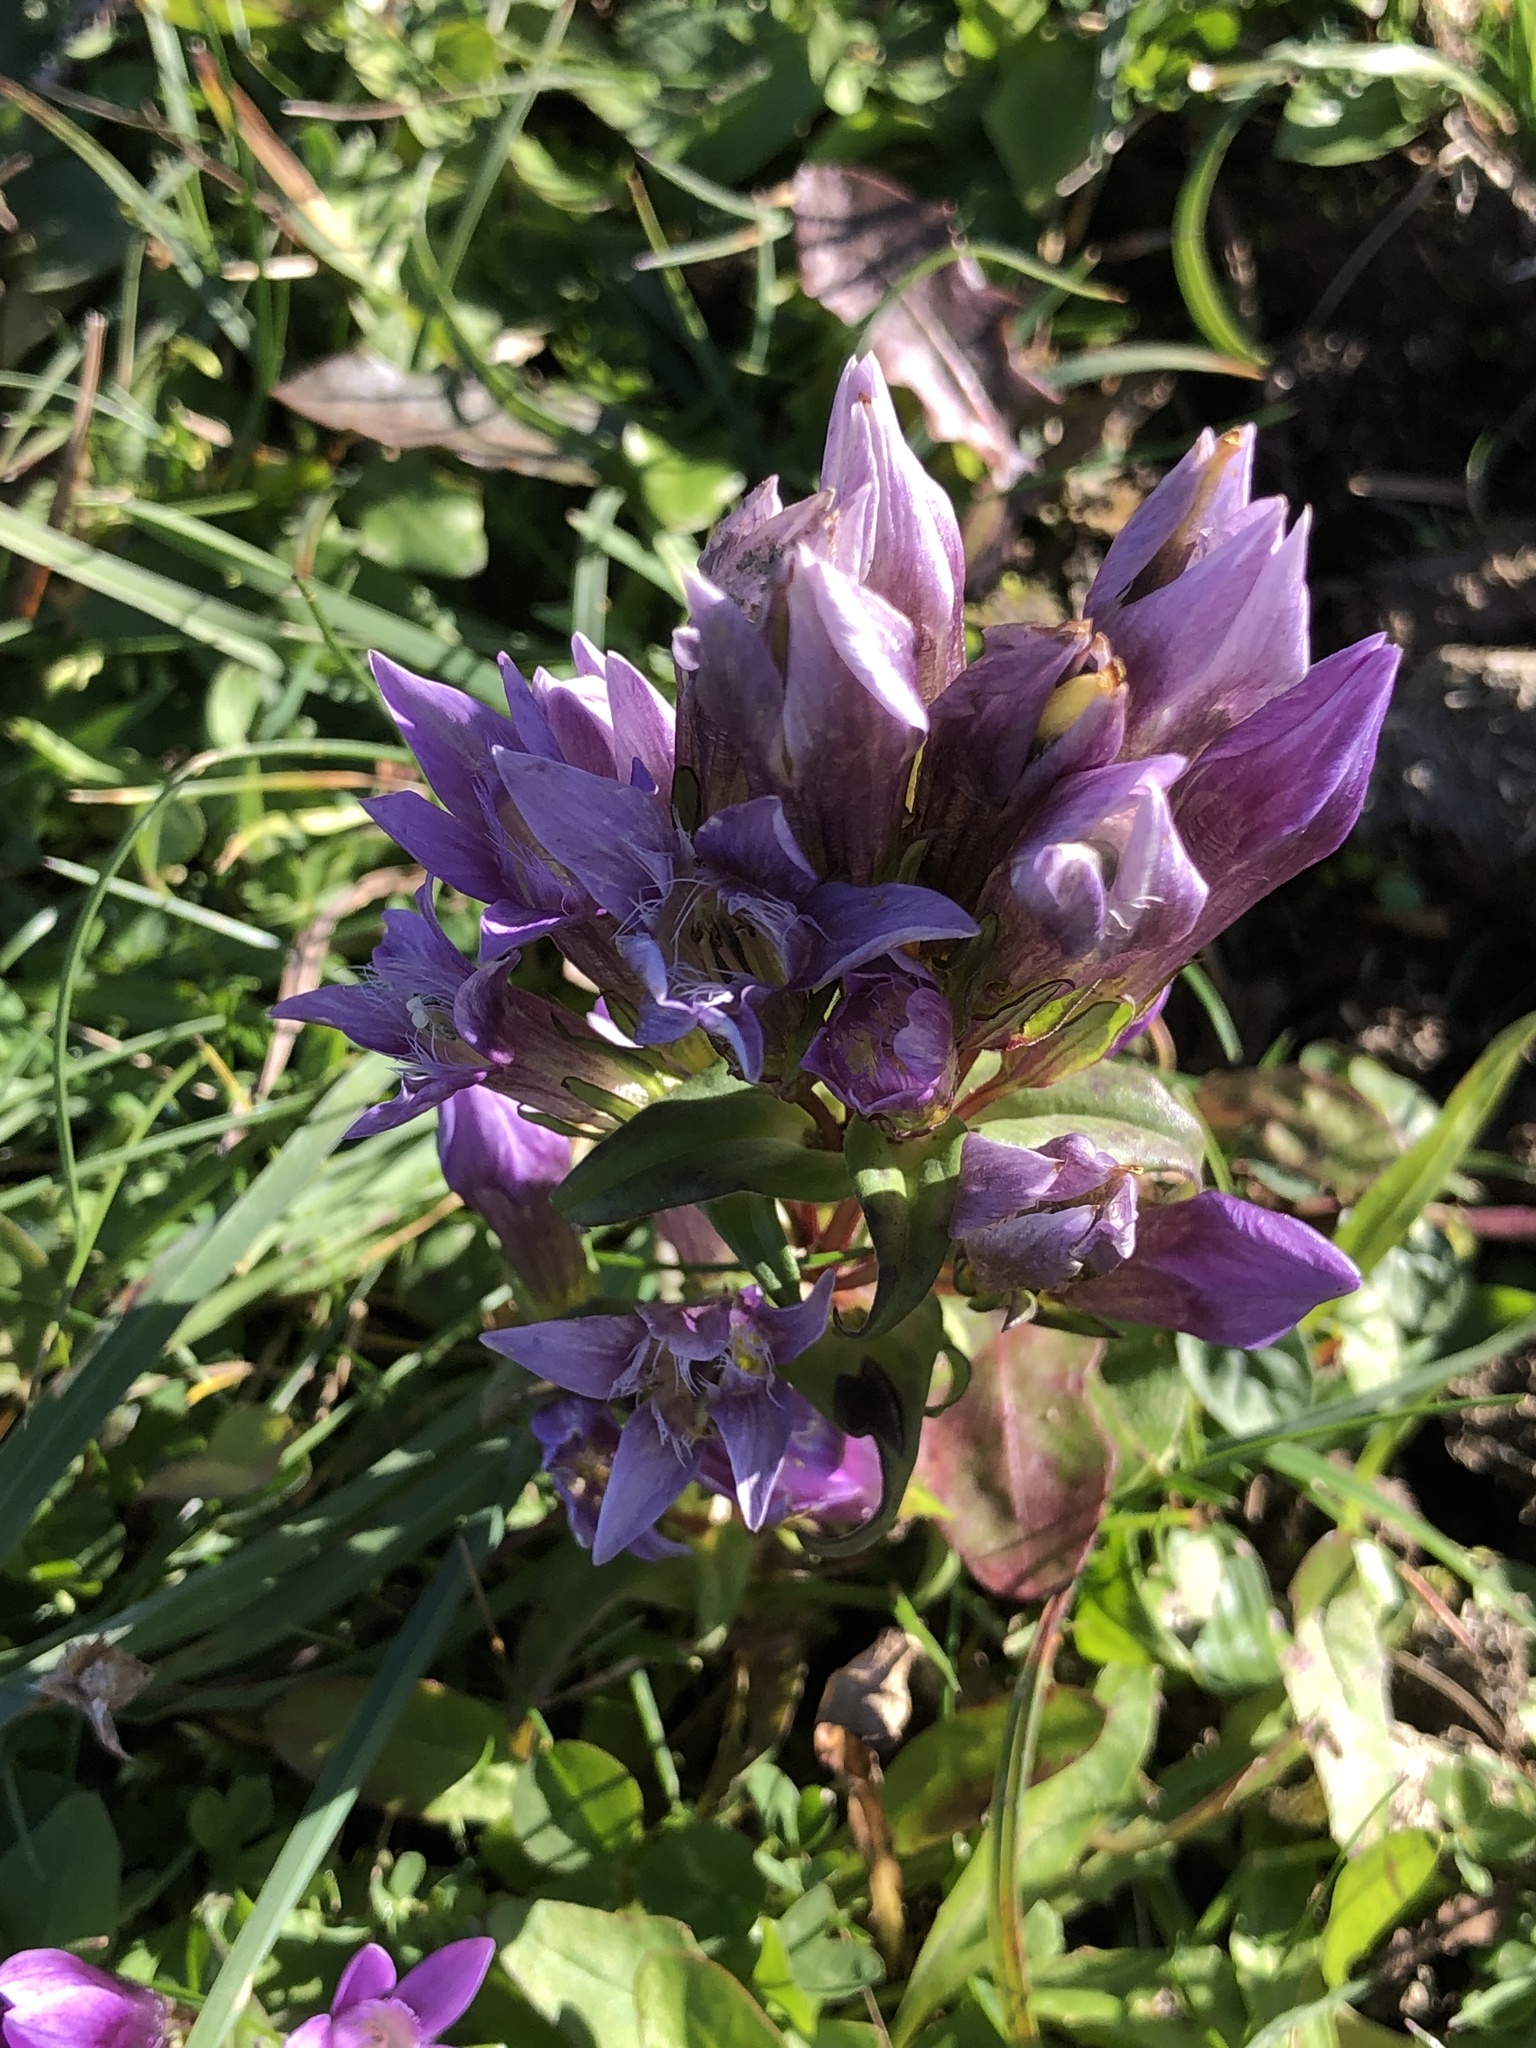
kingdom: Plantae
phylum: Tracheophyta
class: Magnoliopsida
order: Gentianales
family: Gentianaceae
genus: Gentianella
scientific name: Gentianella germanica
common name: Chiltern-gentian
